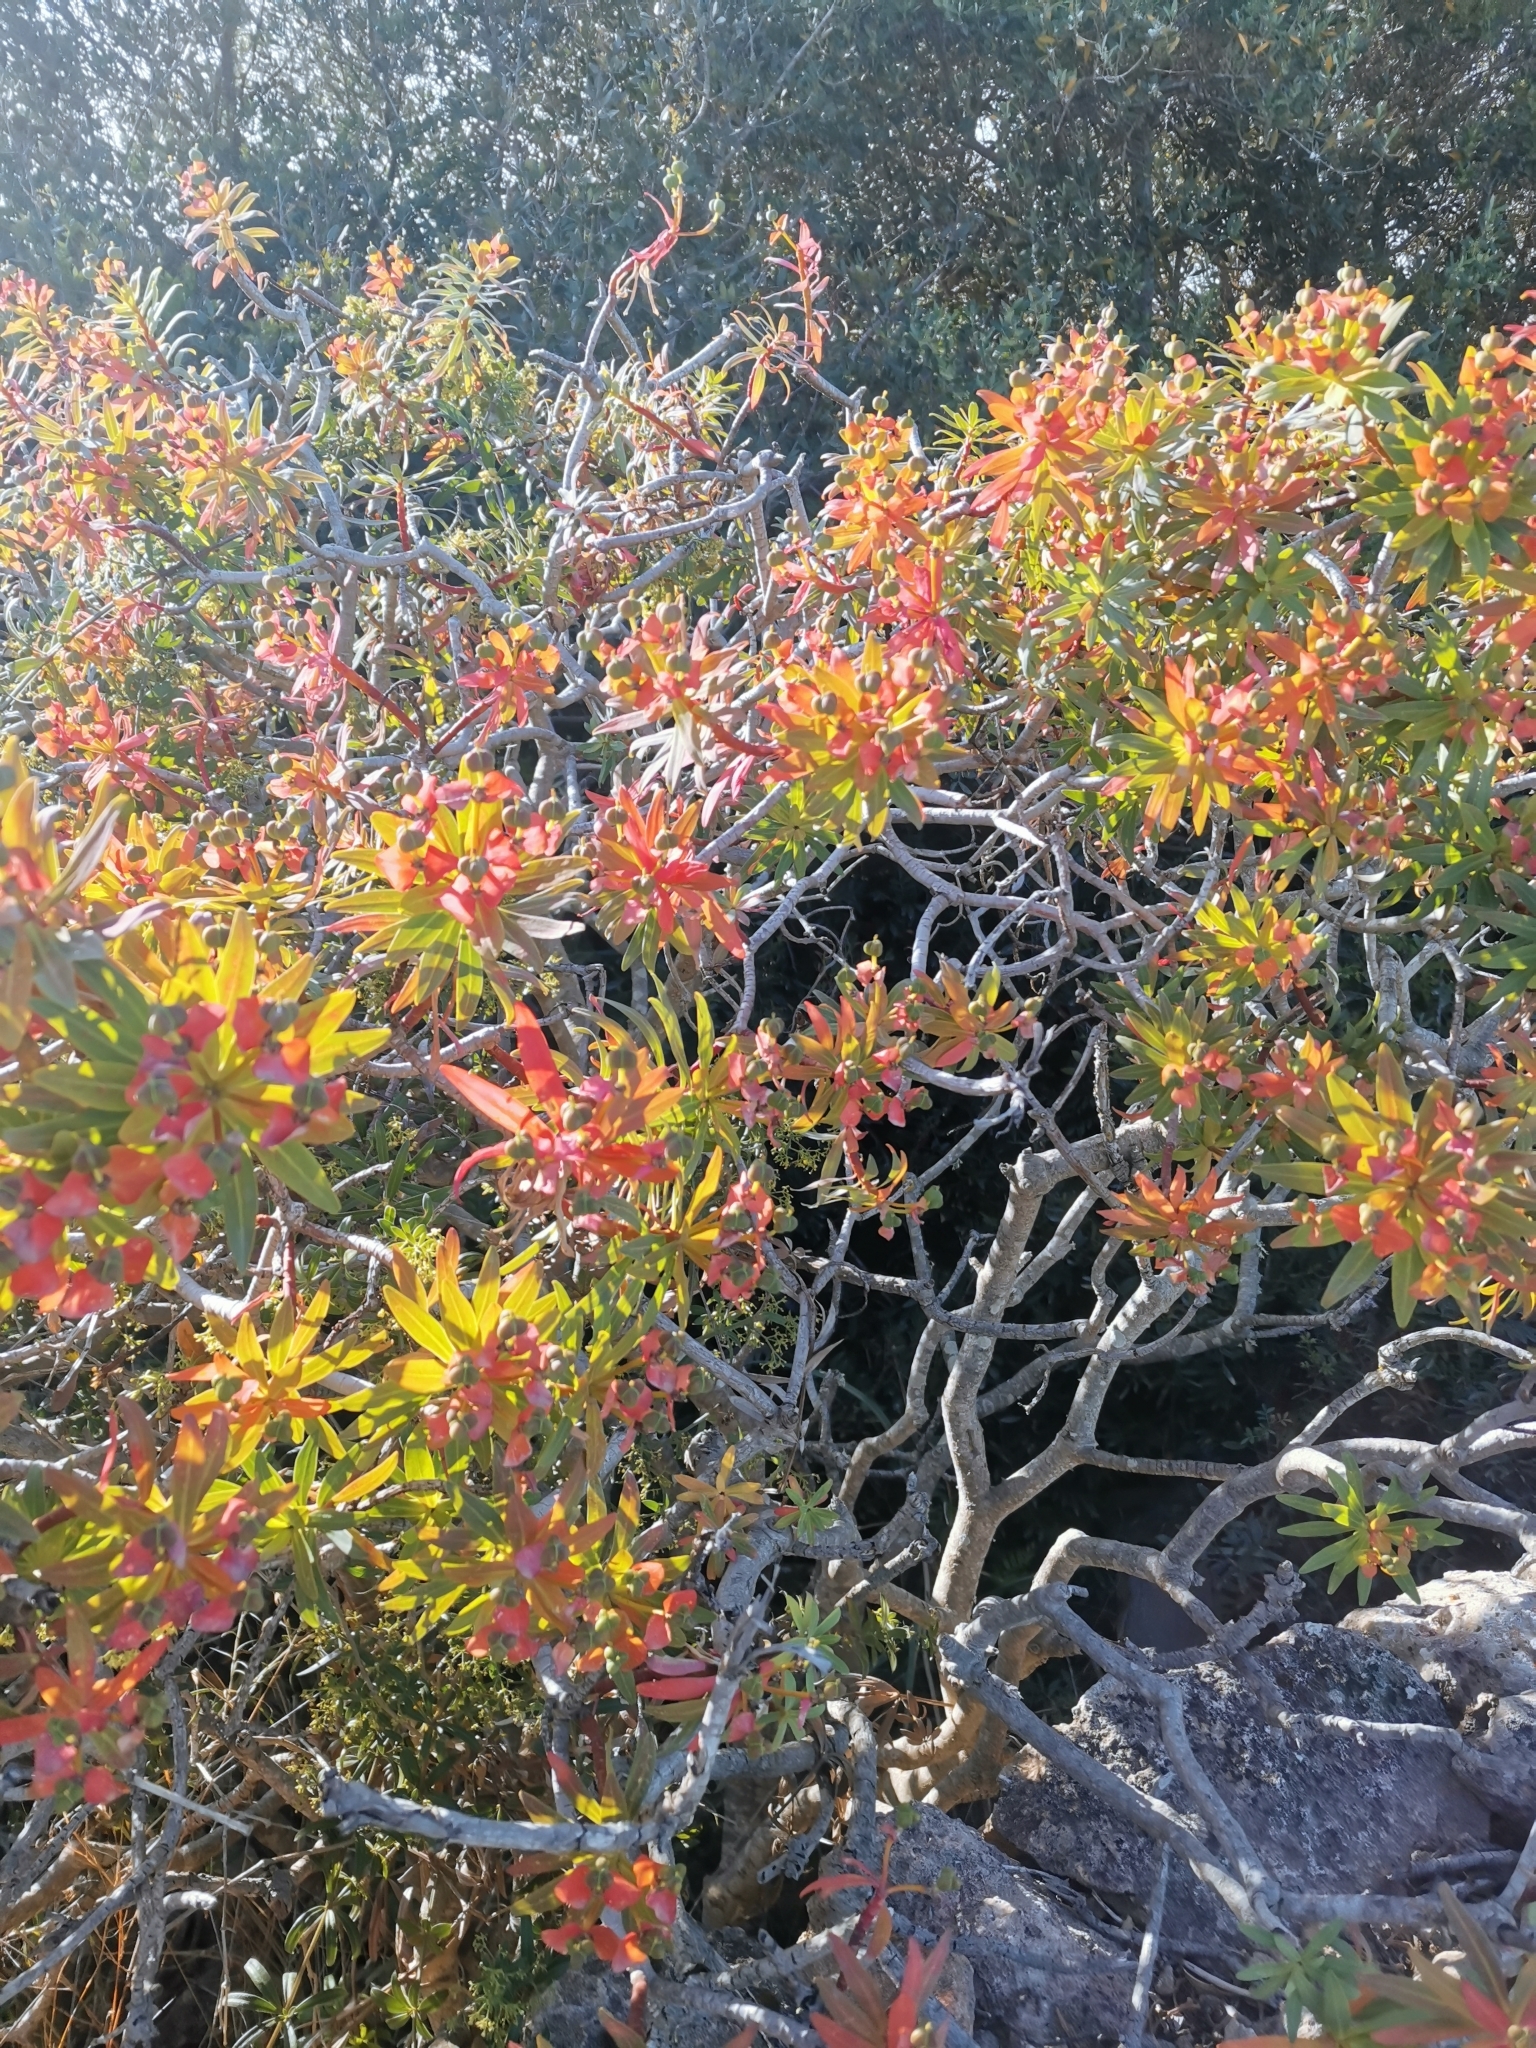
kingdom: Plantae
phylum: Tracheophyta
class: Magnoliopsida
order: Malpighiales
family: Euphorbiaceae
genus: Euphorbia
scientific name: Euphorbia dendroides
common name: Tree spurge
